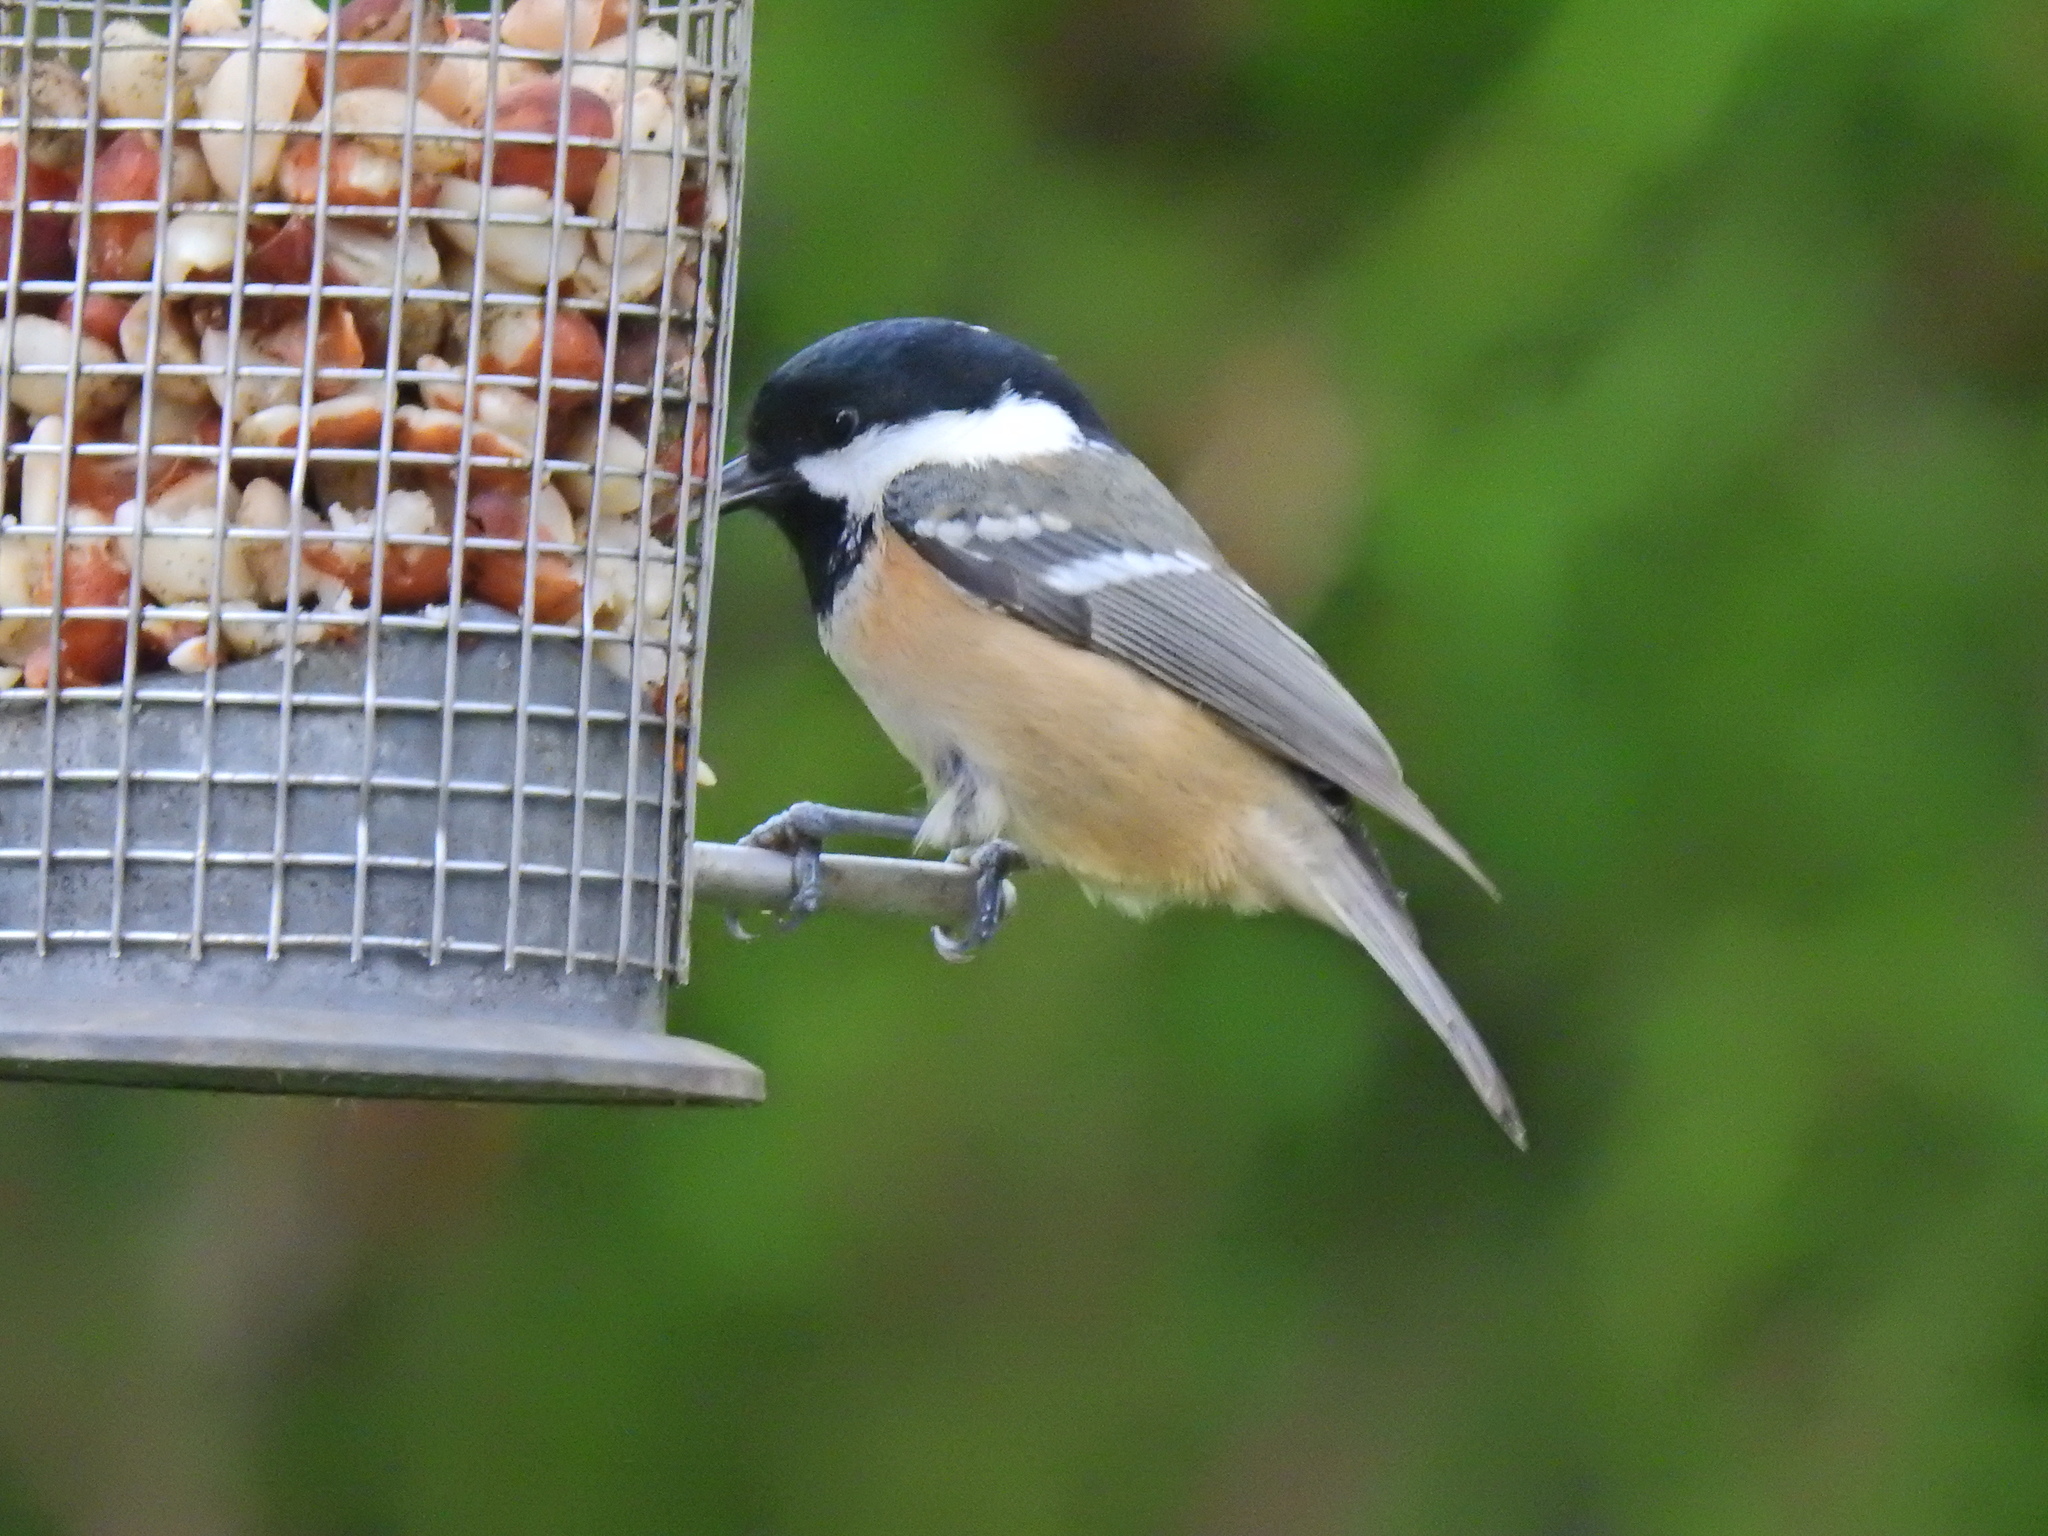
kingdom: Animalia
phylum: Chordata
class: Aves
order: Passeriformes
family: Paridae
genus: Periparus
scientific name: Periparus ater
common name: Coal tit
